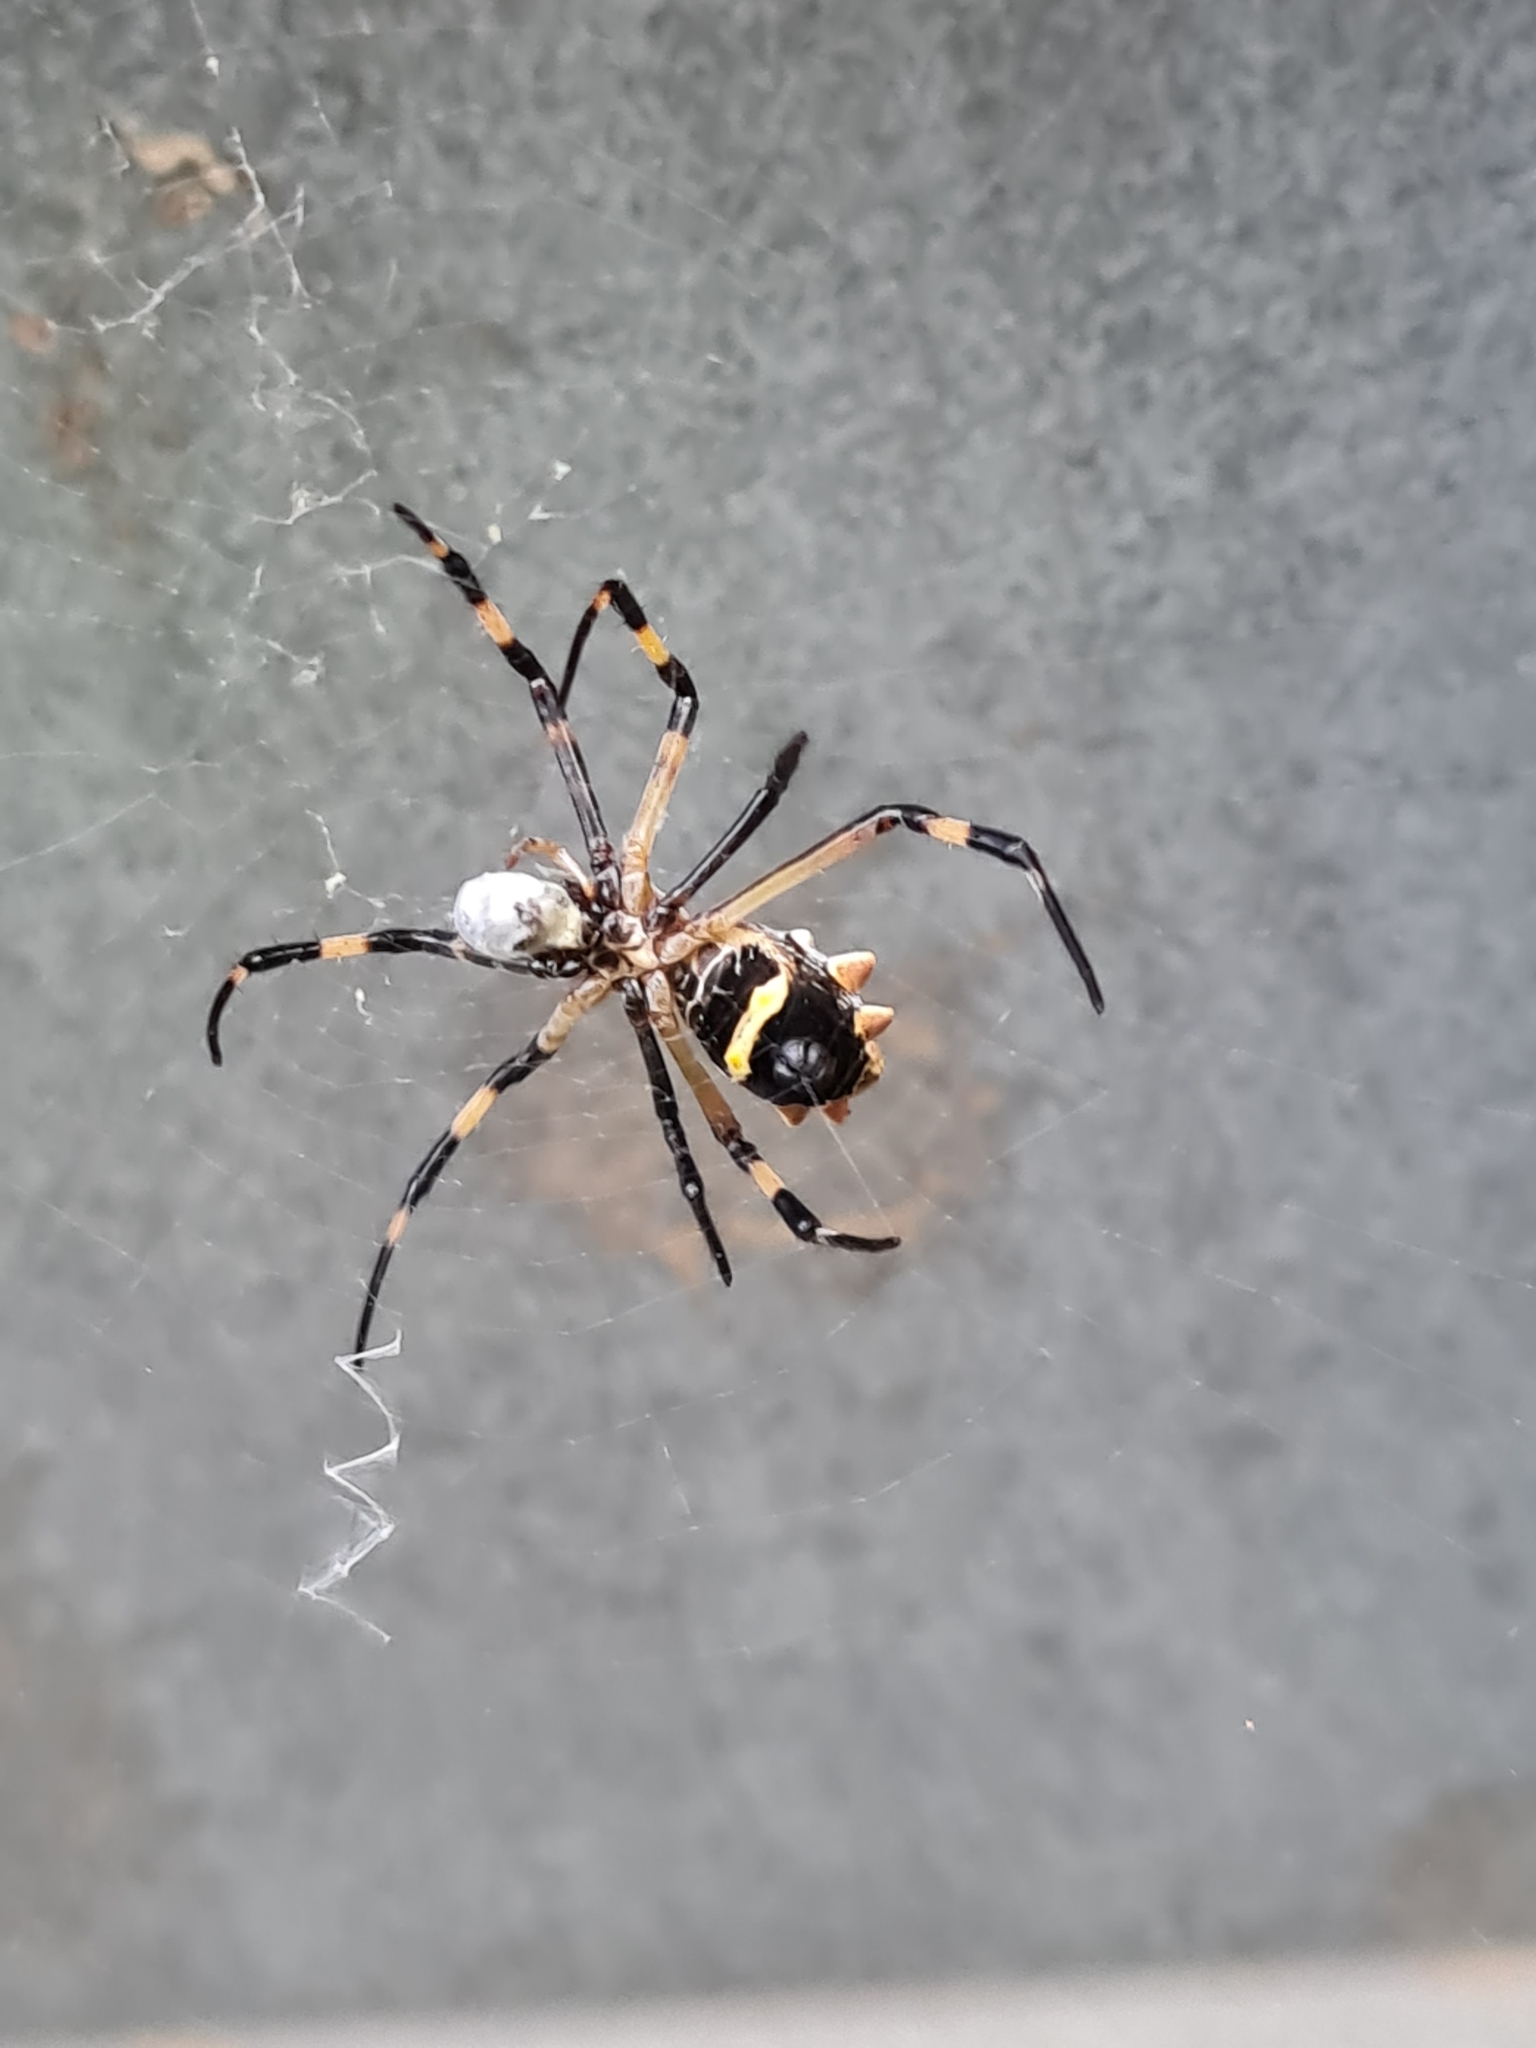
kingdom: Animalia
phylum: Arthropoda
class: Arachnida
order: Araneae
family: Araneidae
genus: Argiope
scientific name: Argiope argentata
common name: Orb weavers
